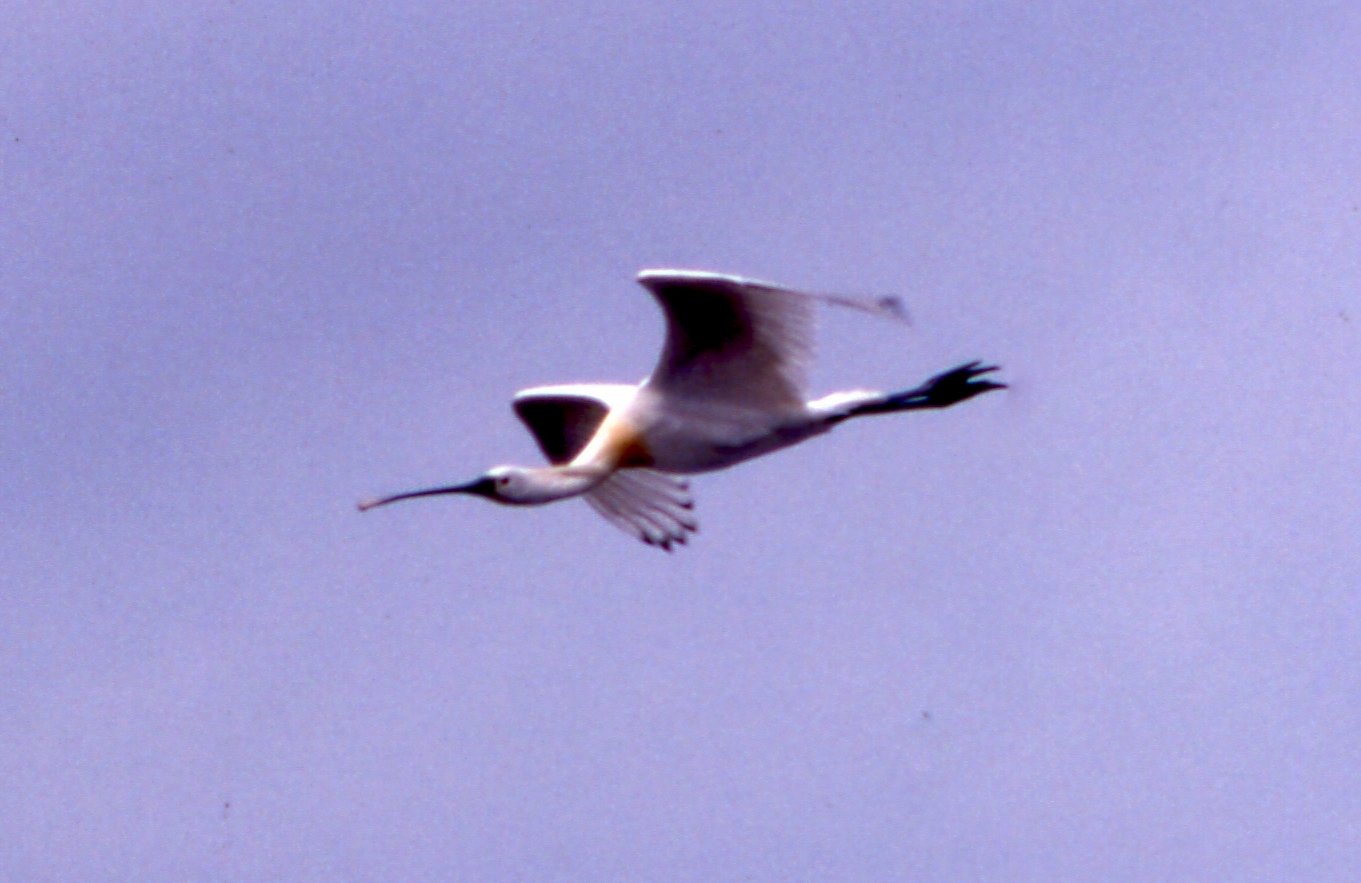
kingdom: Animalia
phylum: Chordata
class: Aves
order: Pelecaniformes
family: Threskiornithidae
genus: Platalea
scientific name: Platalea leucorodia
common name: Eurasian spoonbill
